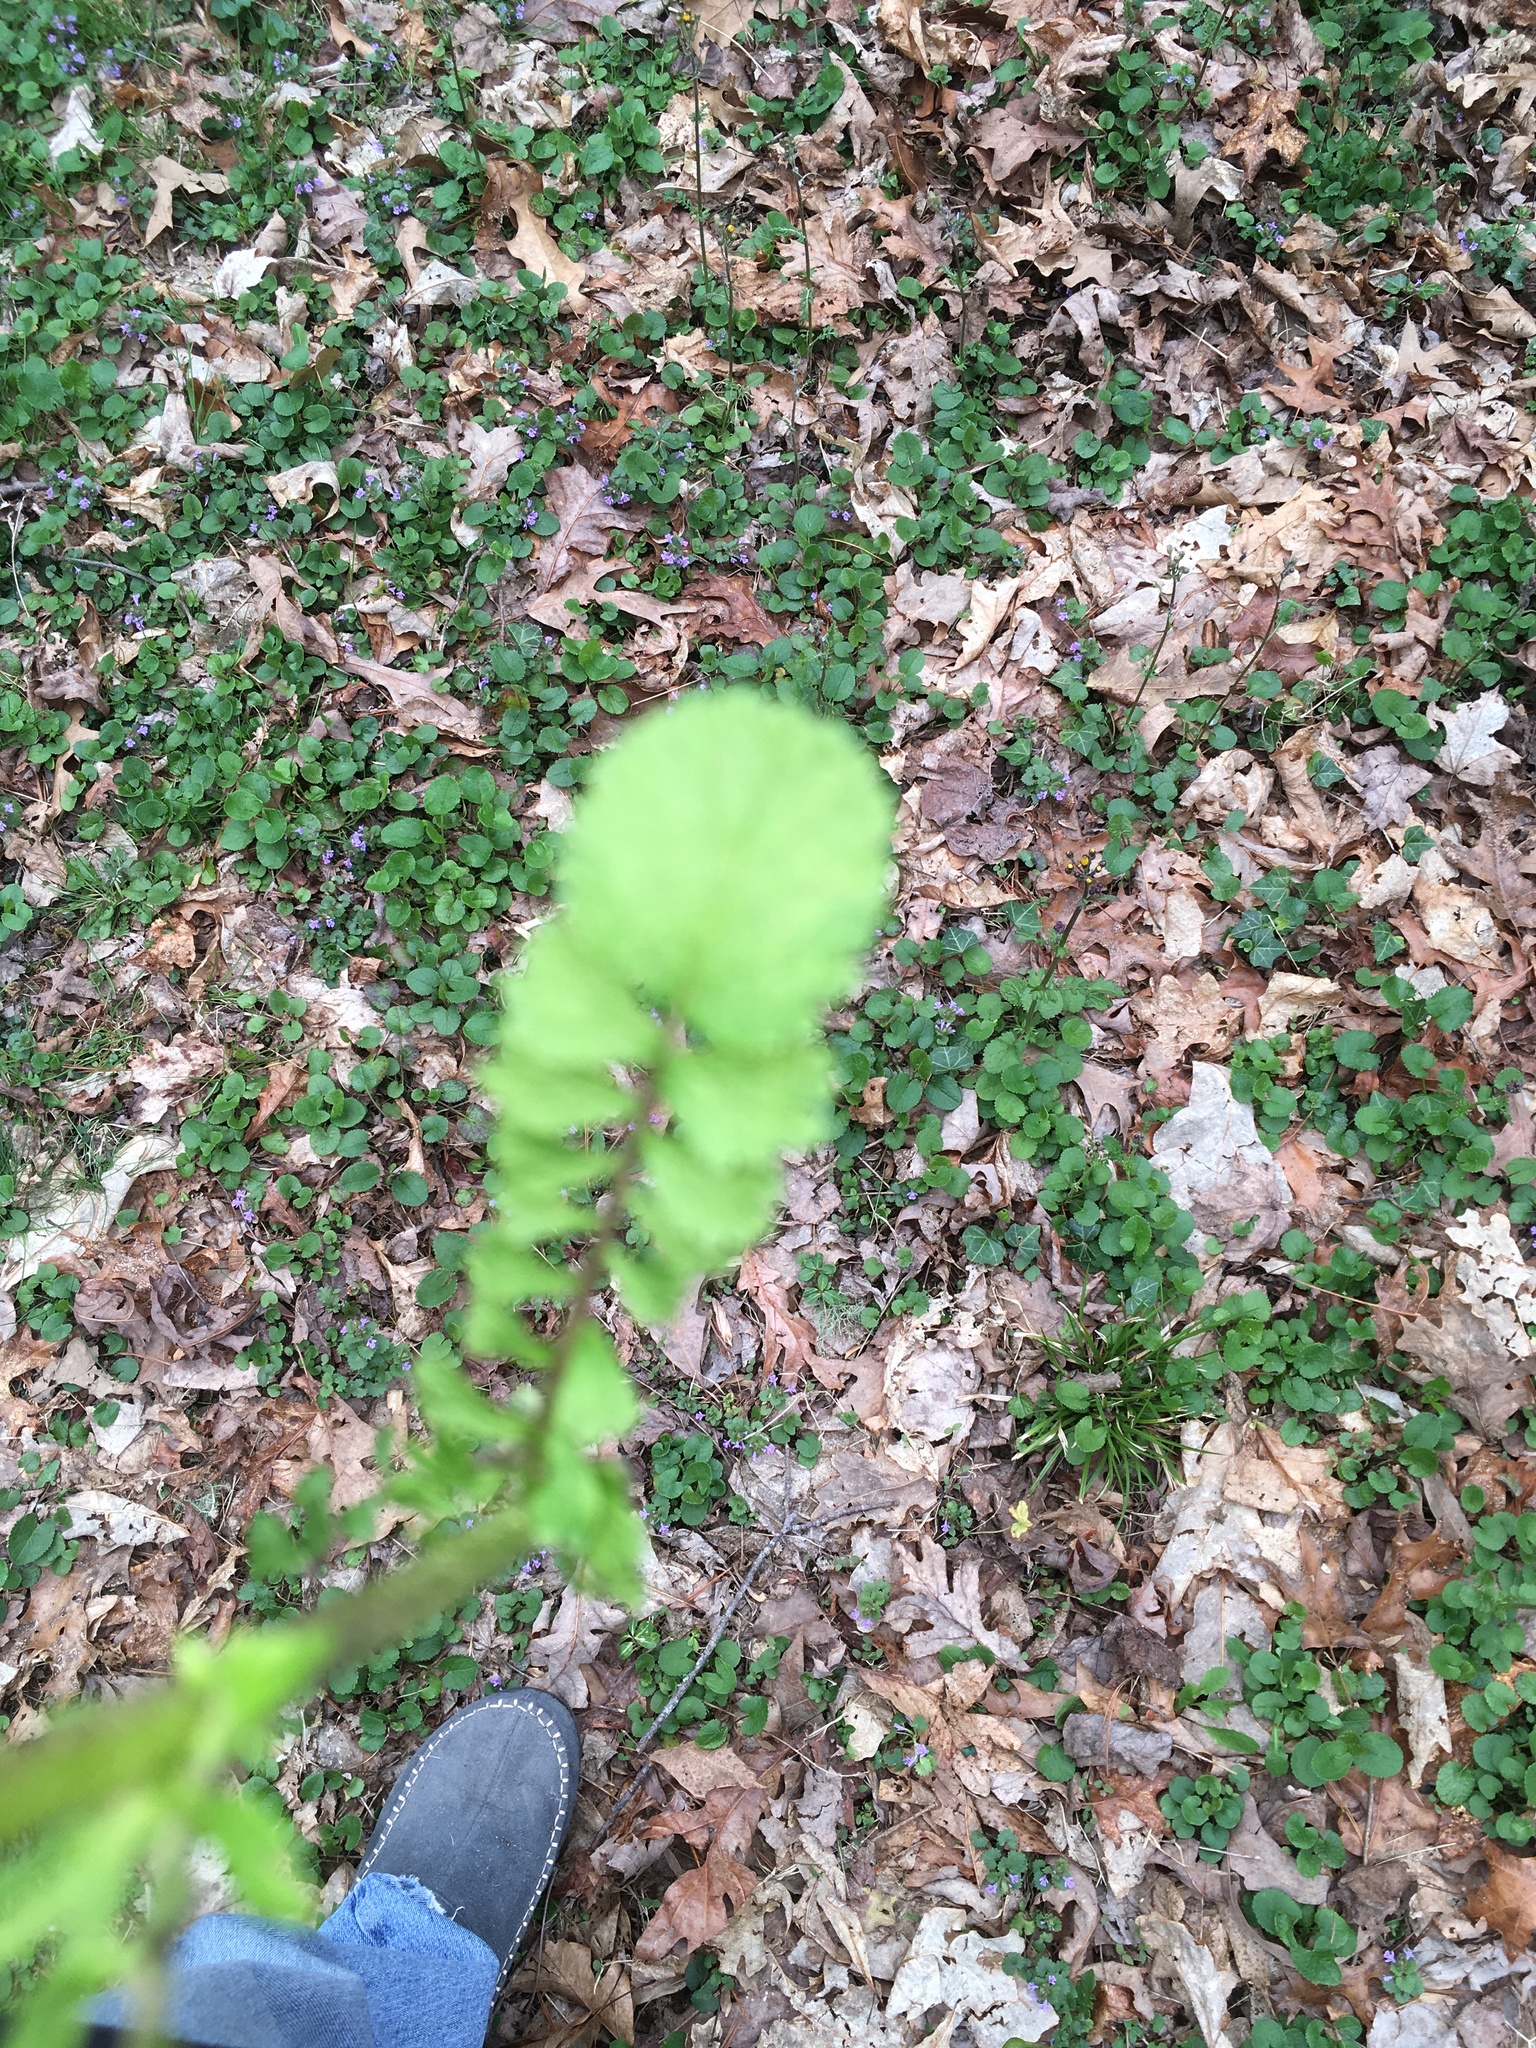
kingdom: Plantae
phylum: Tracheophyta
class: Magnoliopsida
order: Asterales
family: Asteraceae
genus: Packera
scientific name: Packera aurea
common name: Golden groundsel
